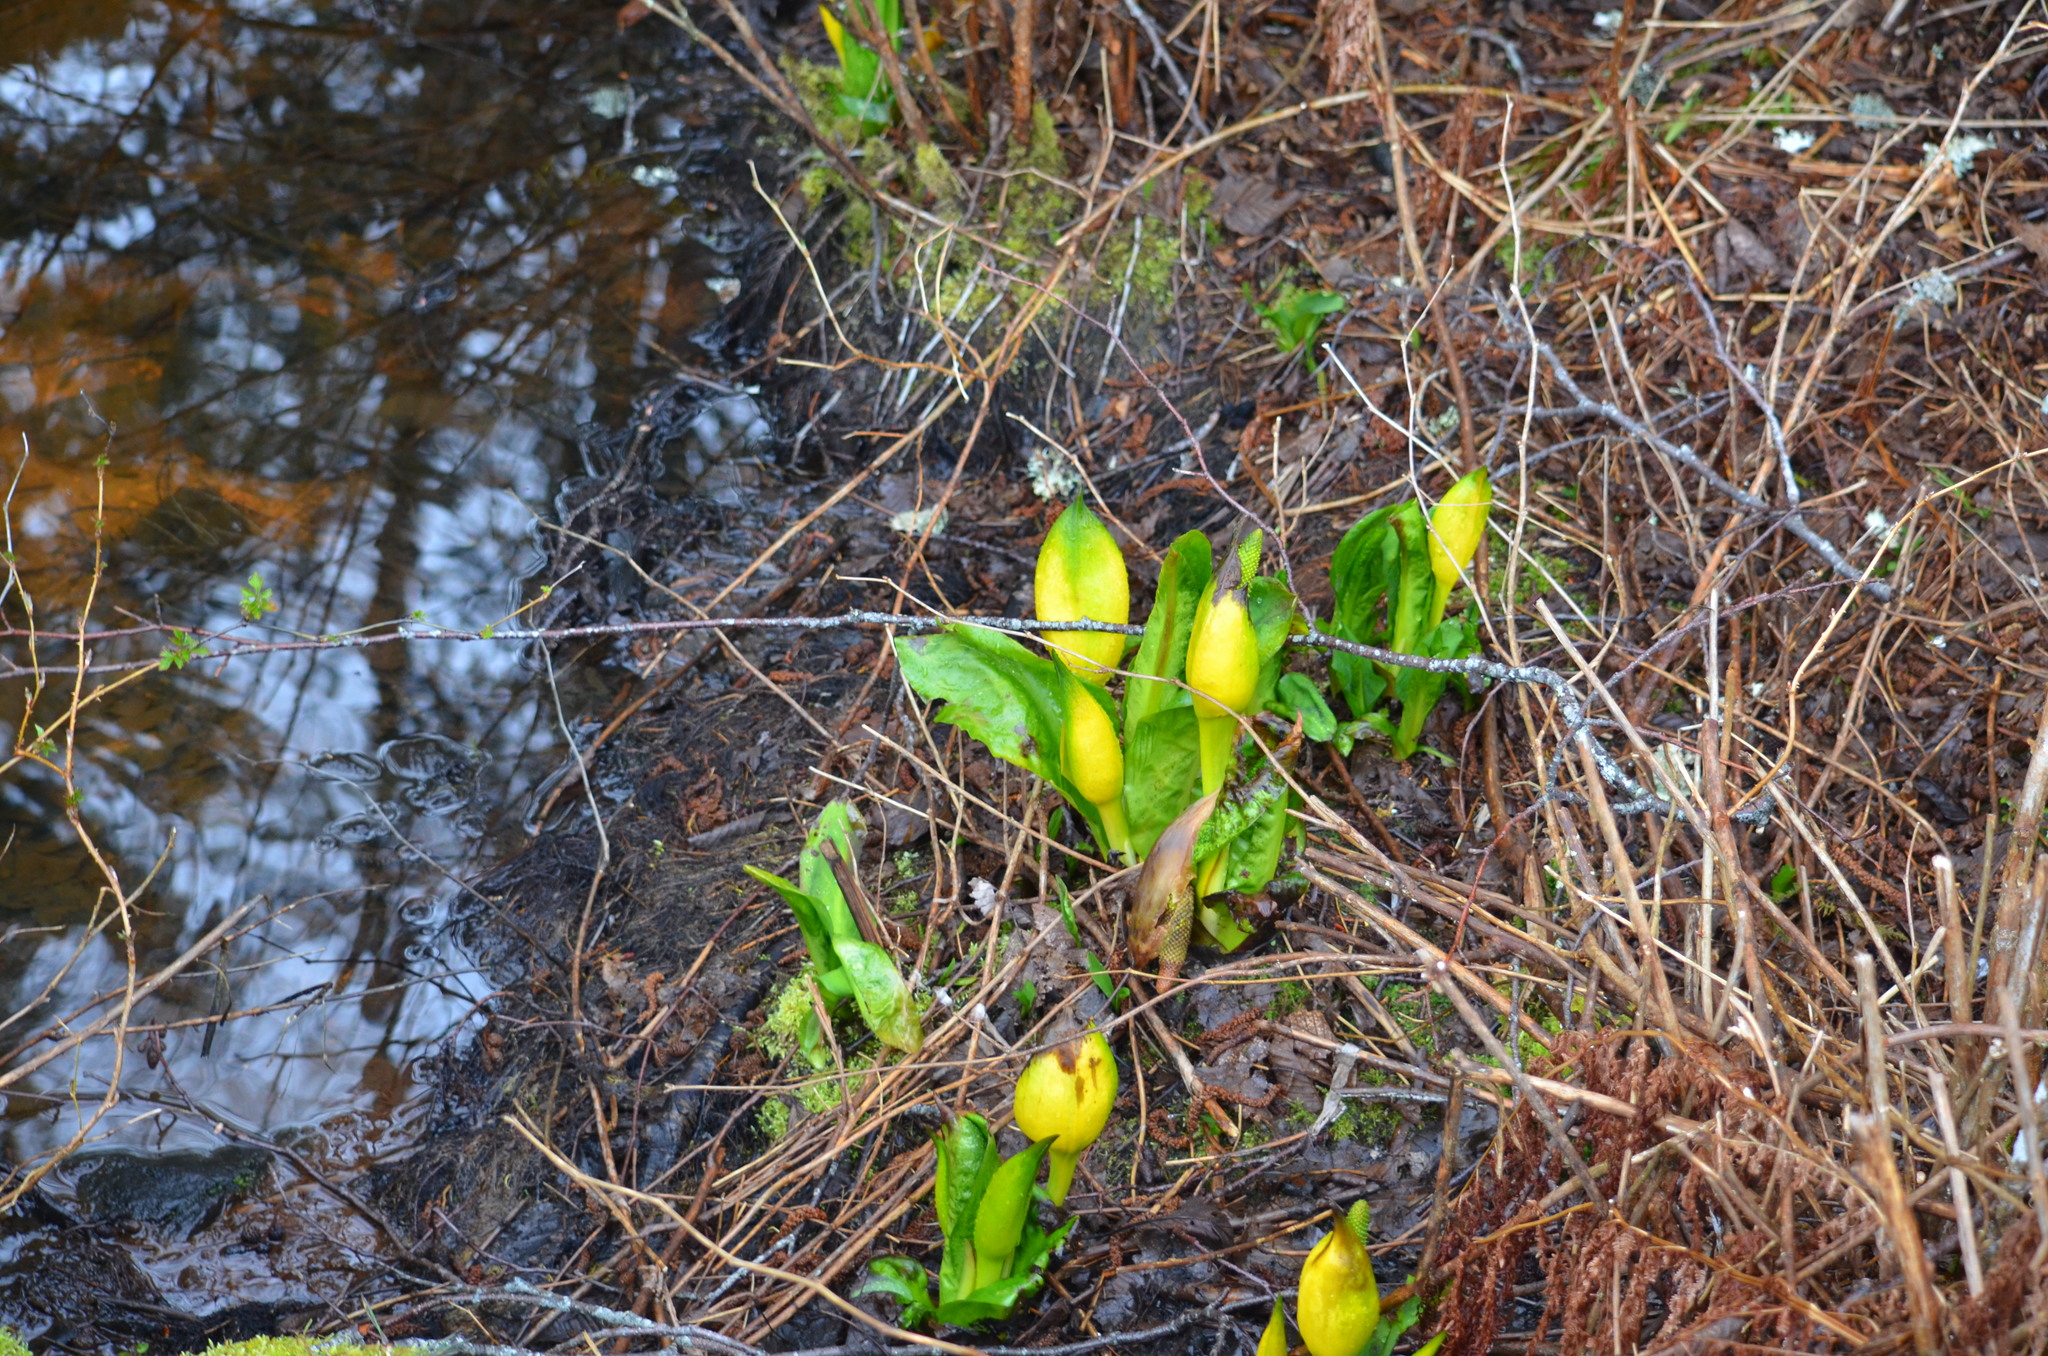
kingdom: Plantae
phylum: Tracheophyta
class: Liliopsida
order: Alismatales
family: Araceae
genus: Lysichiton
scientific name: Lysichiton americanus
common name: American skunk cabbage
